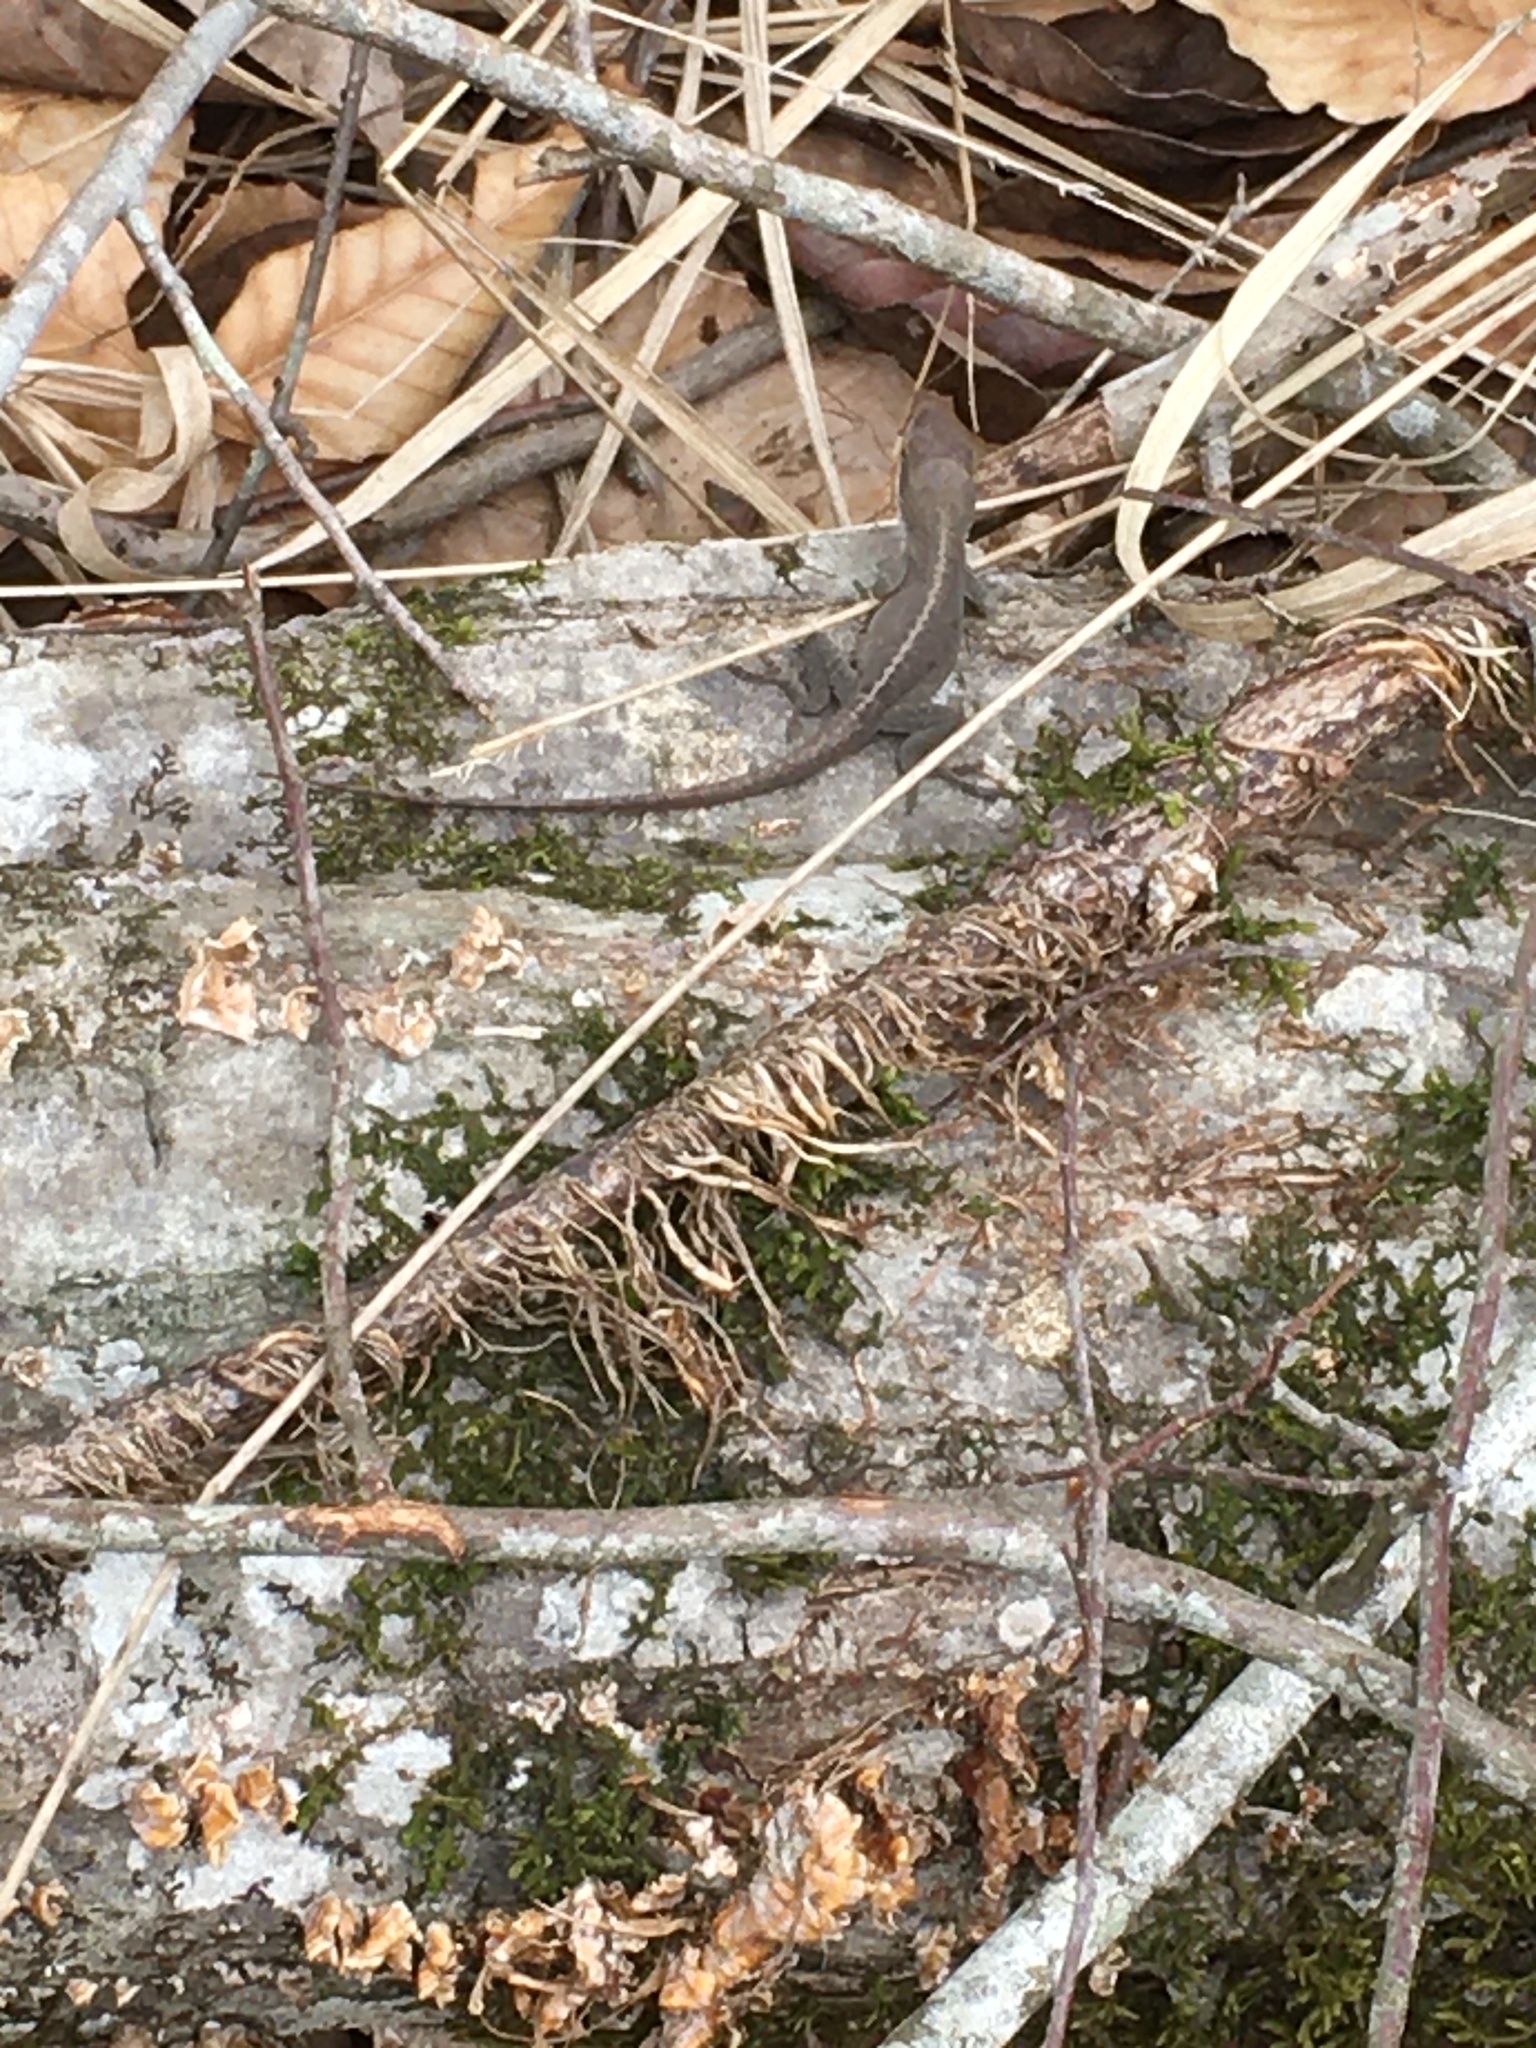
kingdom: Animalia
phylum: Chordata
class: Squamata
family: Dactyloidae
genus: Anolis
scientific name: Anolis carolinensis
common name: Green anole
